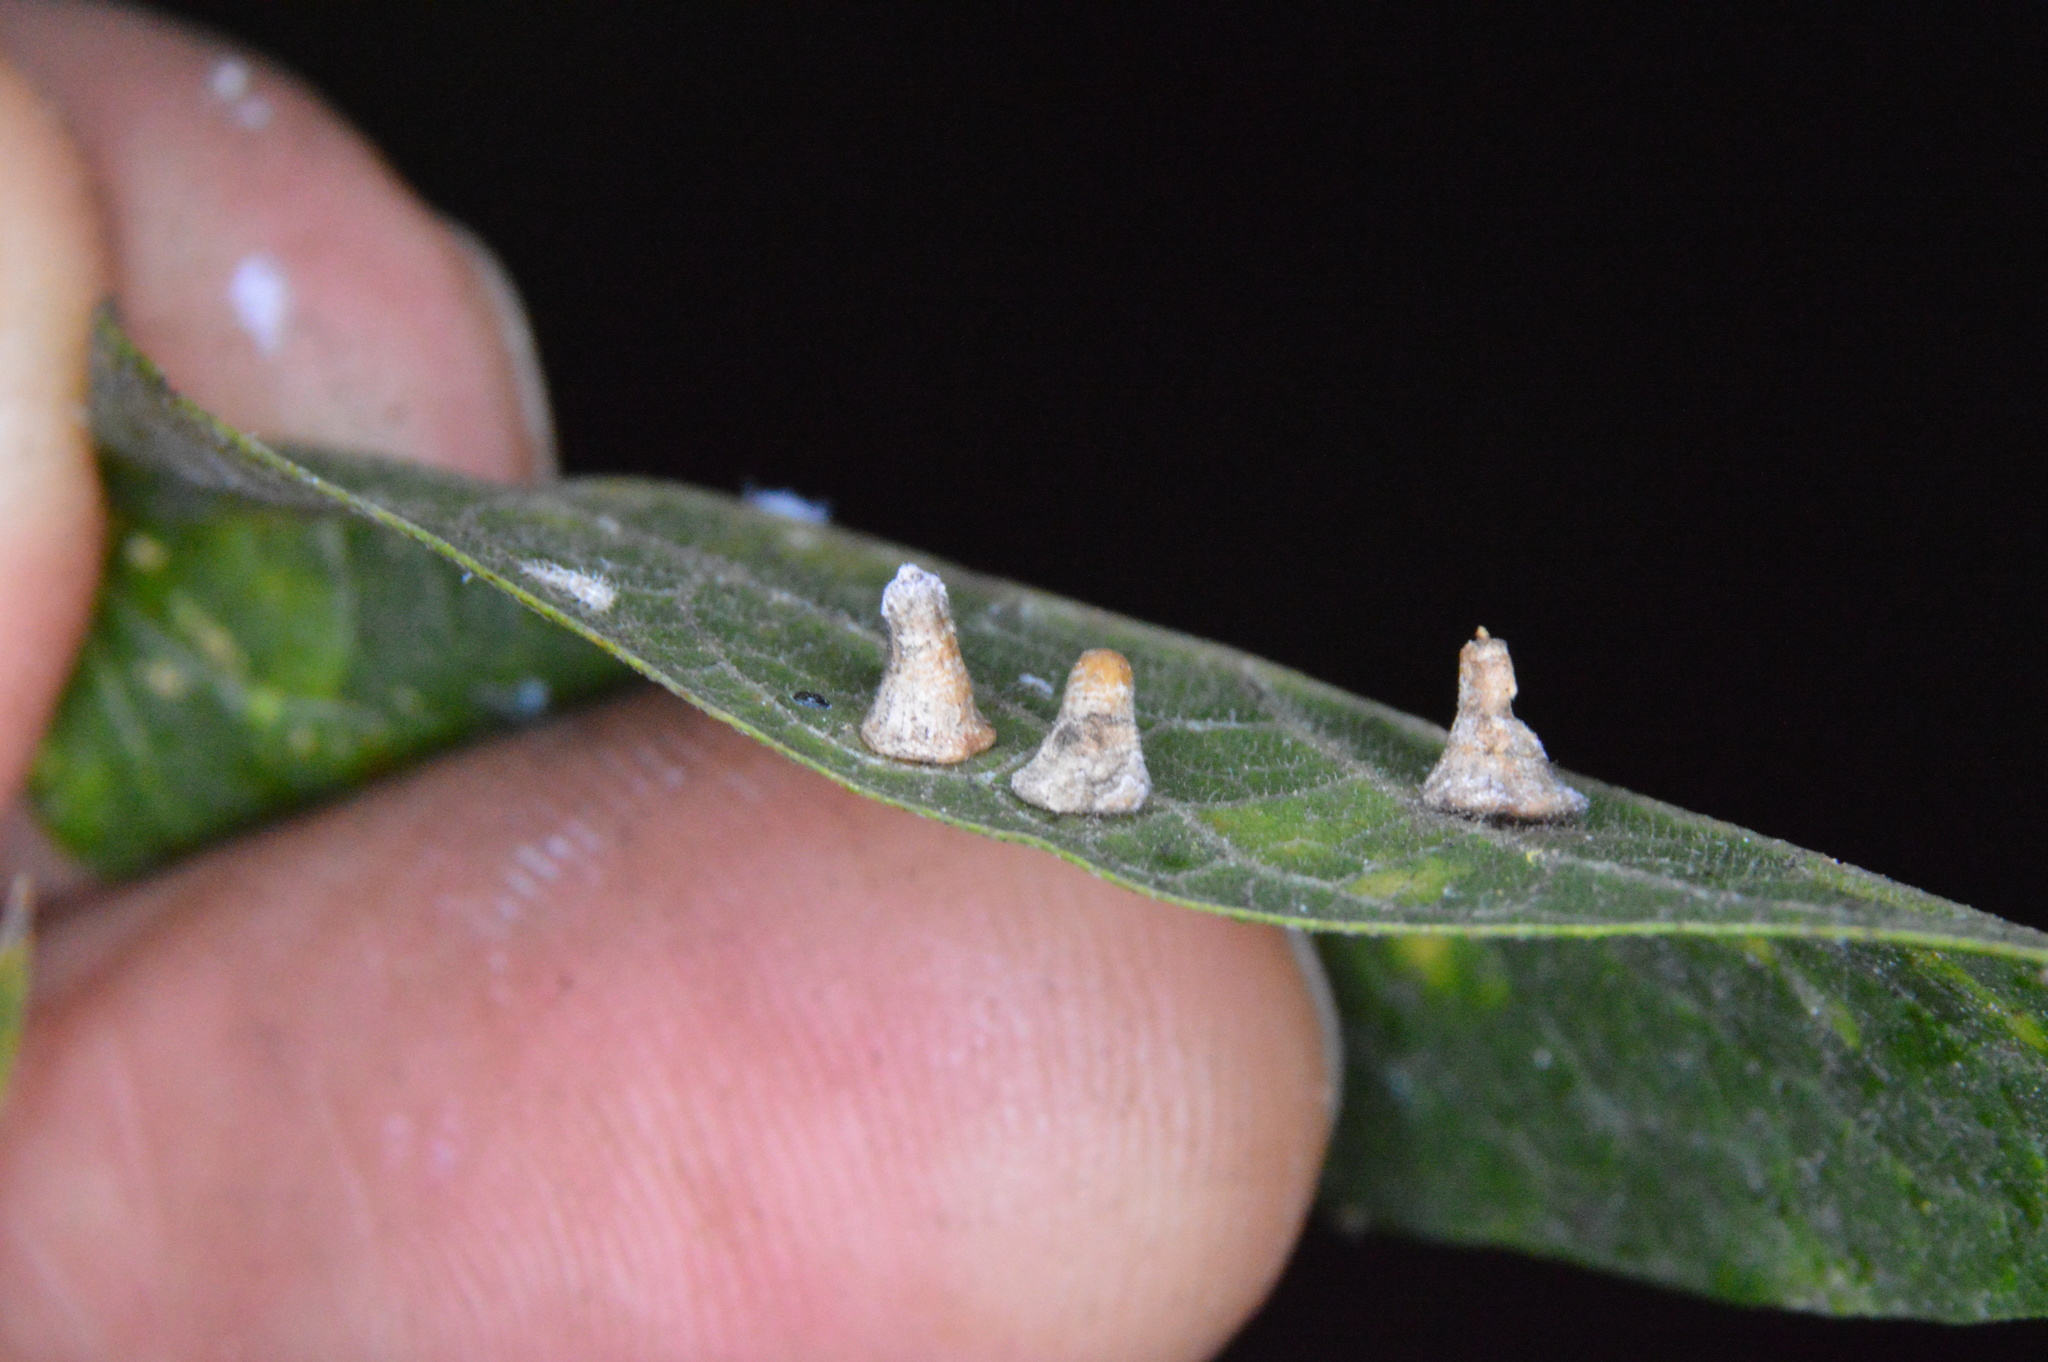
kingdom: Animalia
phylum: Arthropoda
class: Insecta
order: Diptera
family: Cecidomyiidae
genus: Celticecis
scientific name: Celticecis aciculata
